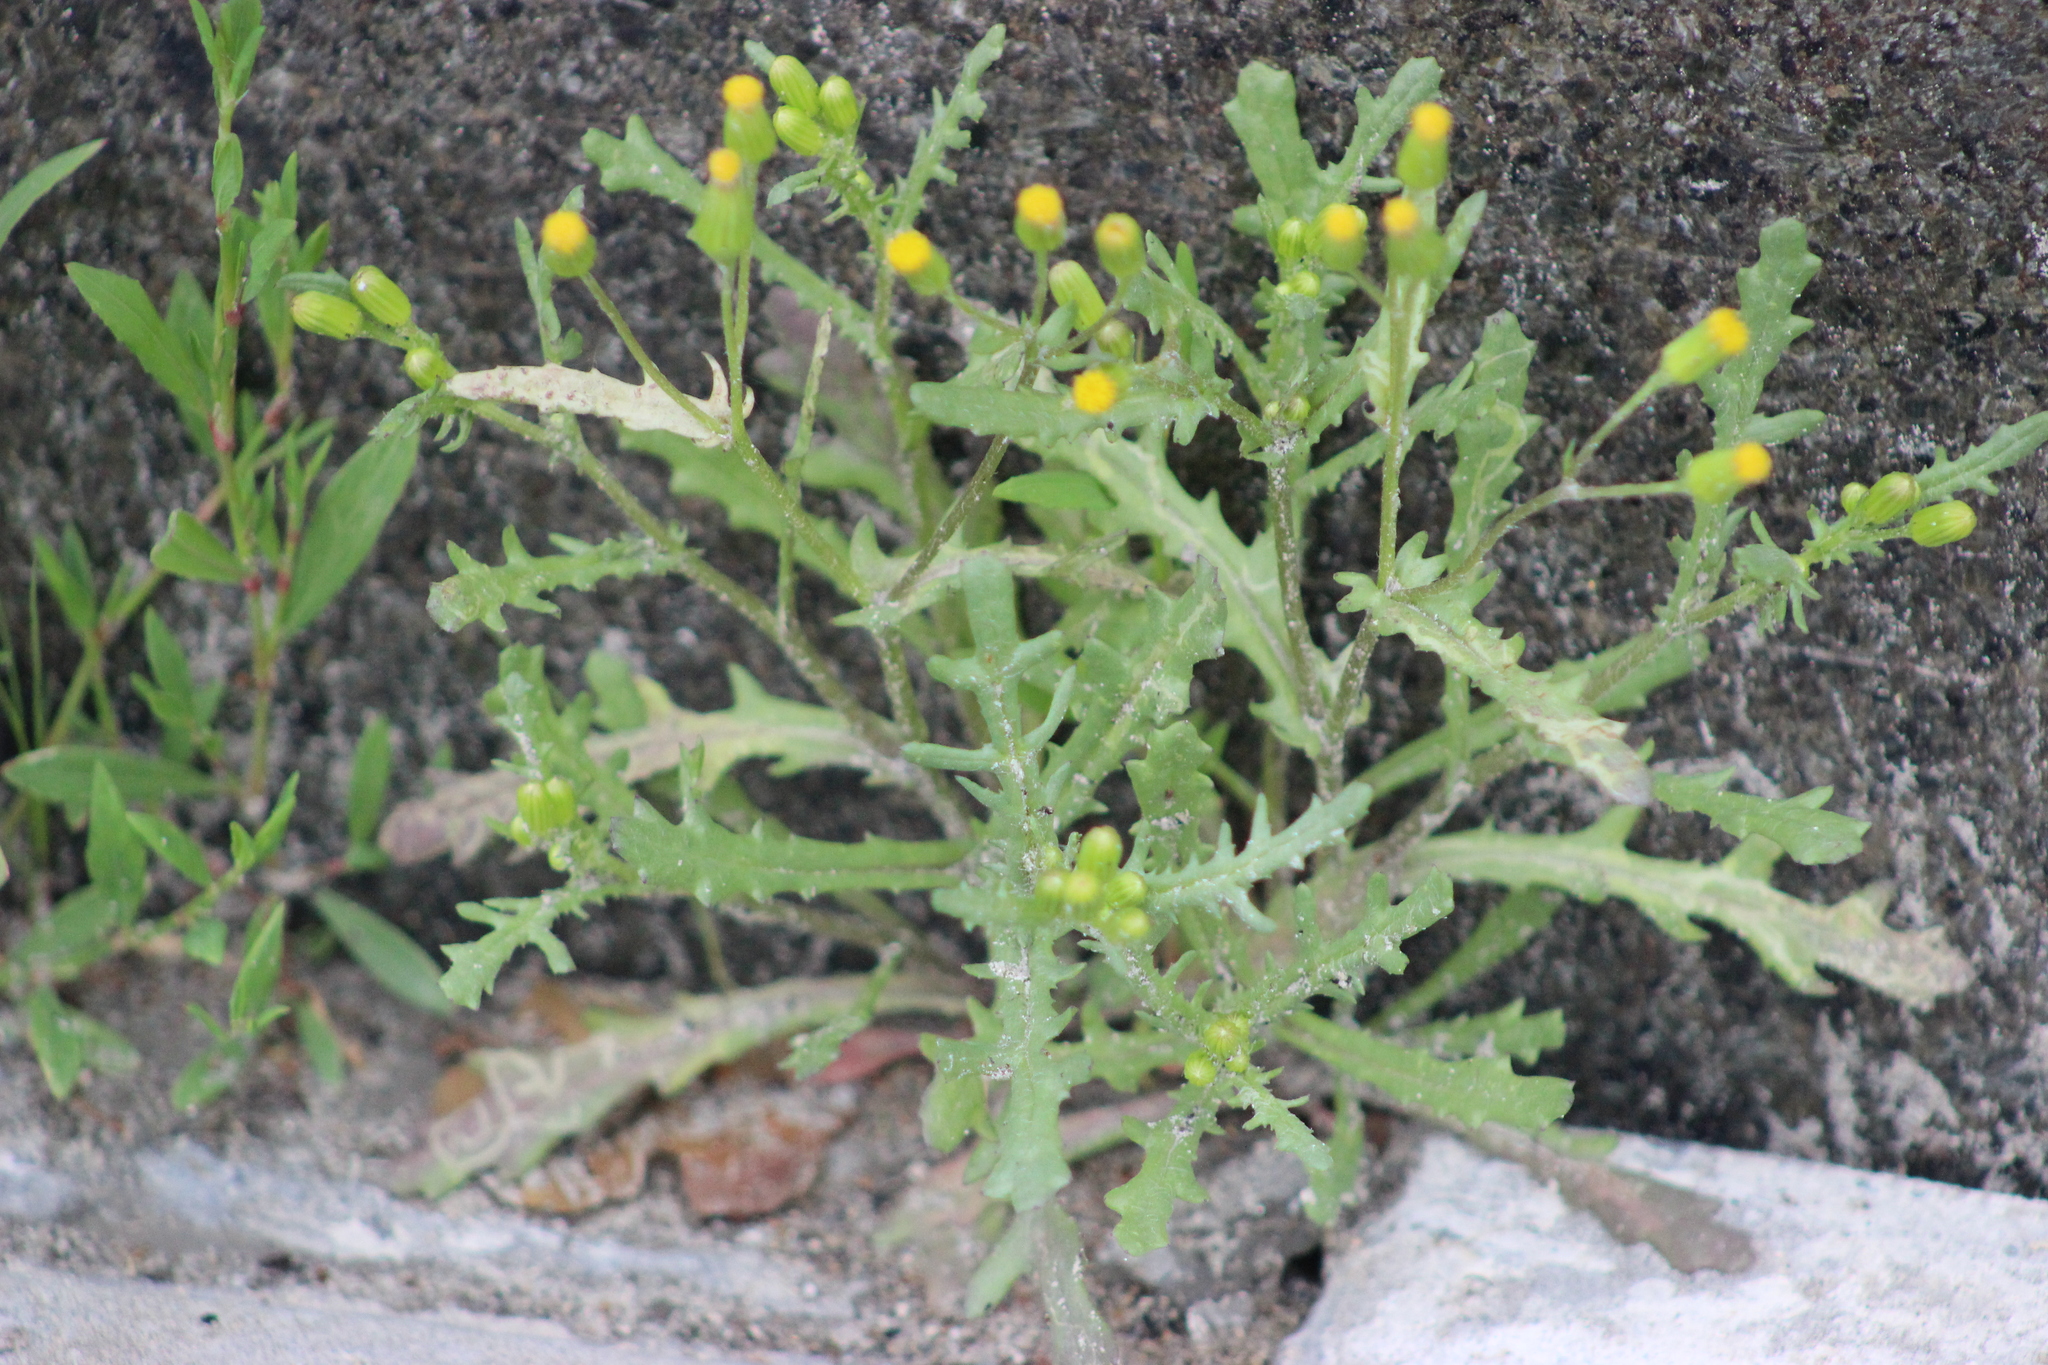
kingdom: Plantae
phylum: Tracheophyta
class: Magnoliopsida
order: Asterales
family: Asteraceae
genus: Senecio
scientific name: Senecio dubitabilis
